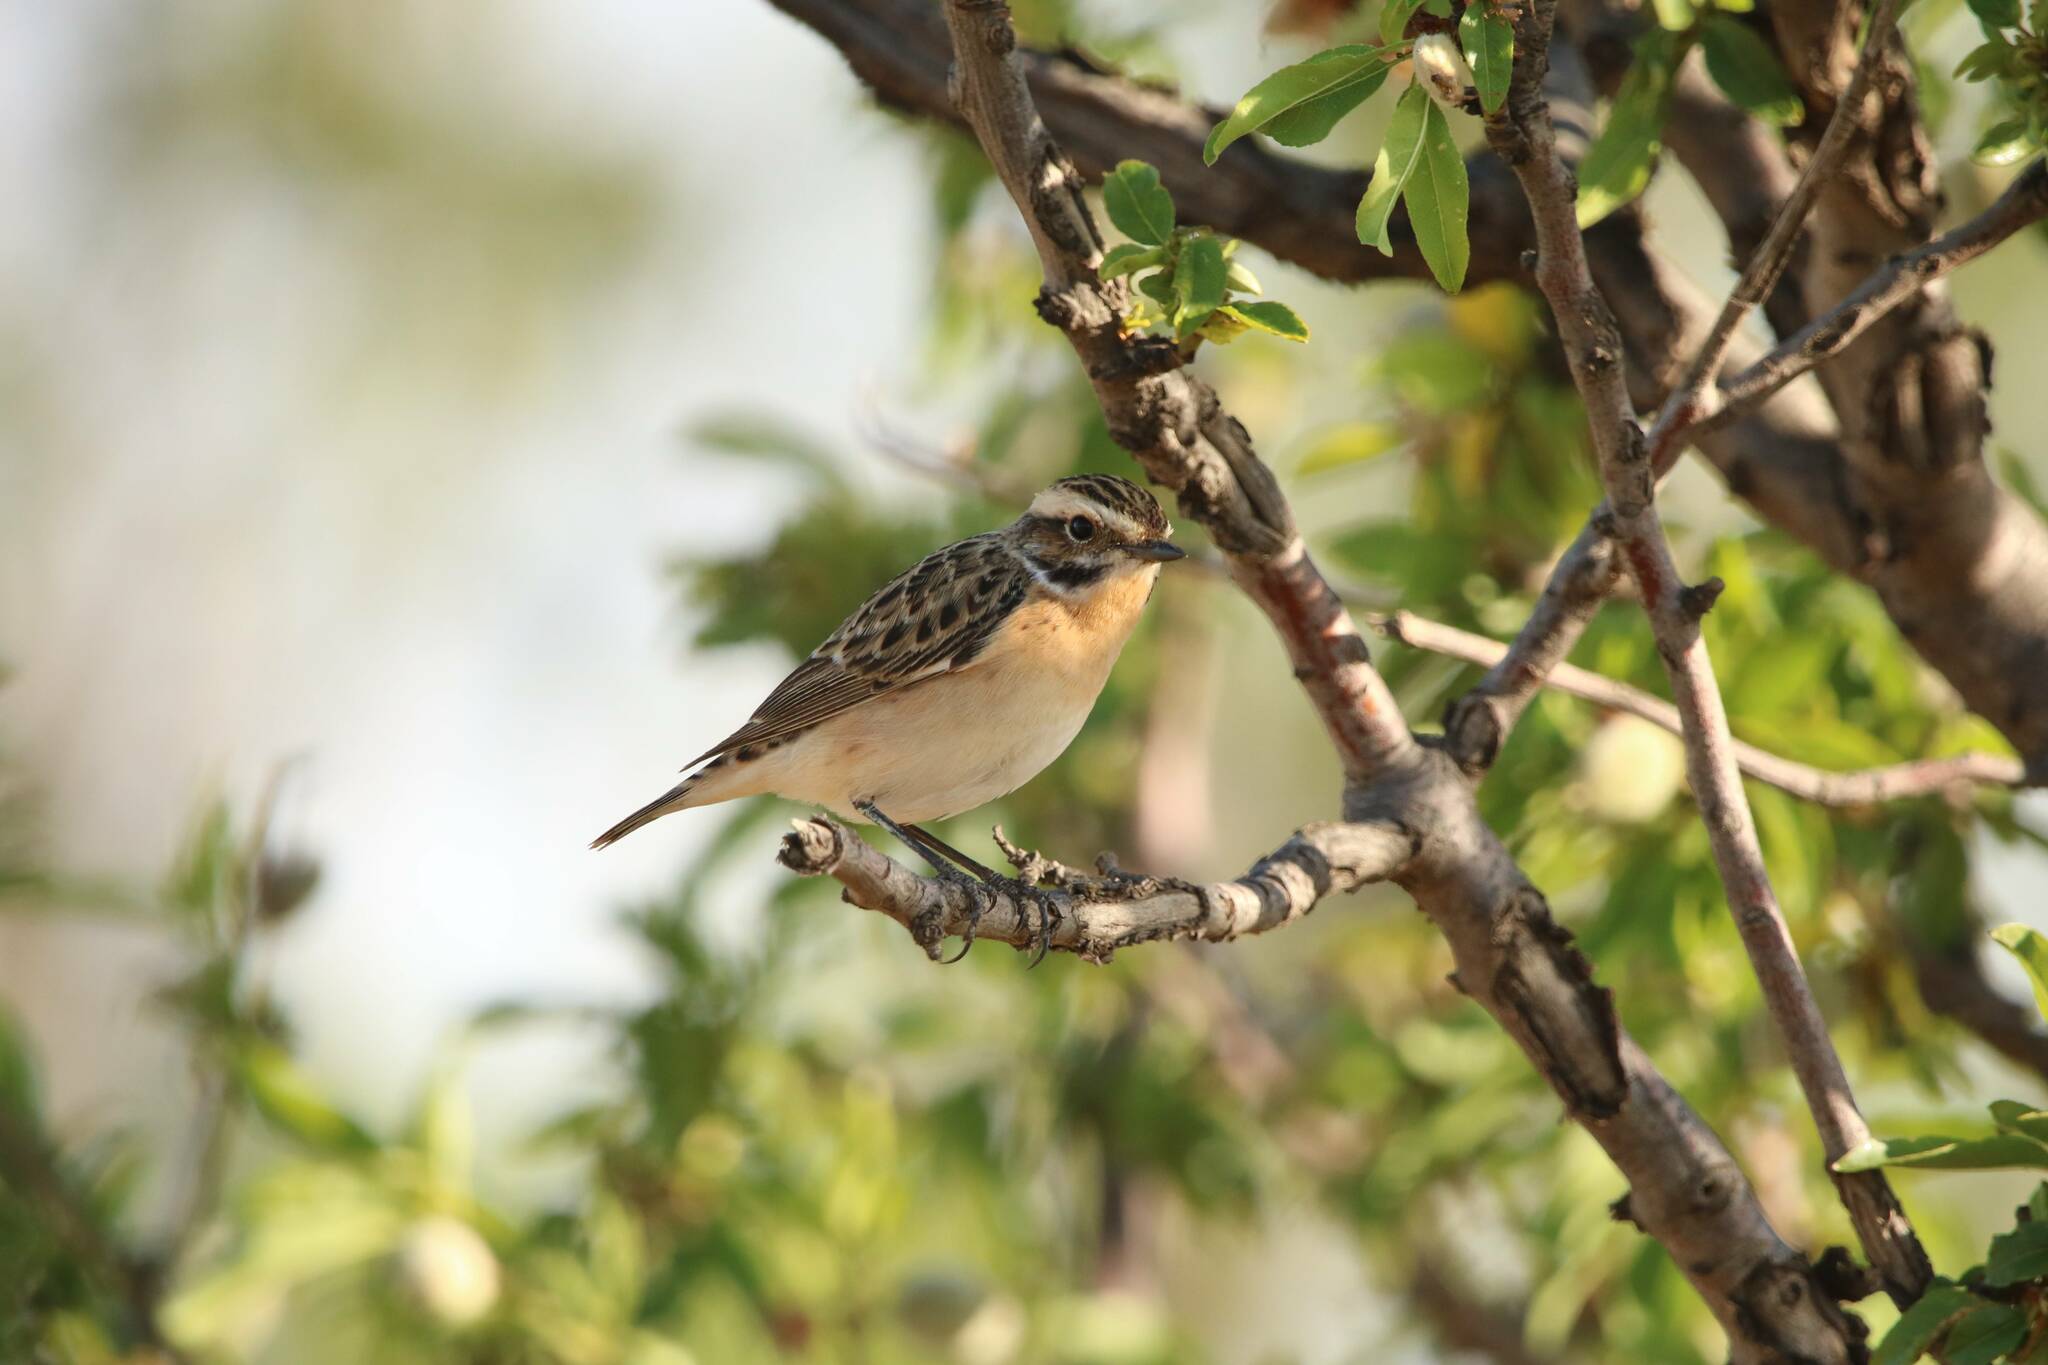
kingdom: Animalia
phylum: Chordata
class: Aves
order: Passeriformes
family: Muscicapidae
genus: Saxicola
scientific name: Saxicola rubetra
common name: Whinchat
